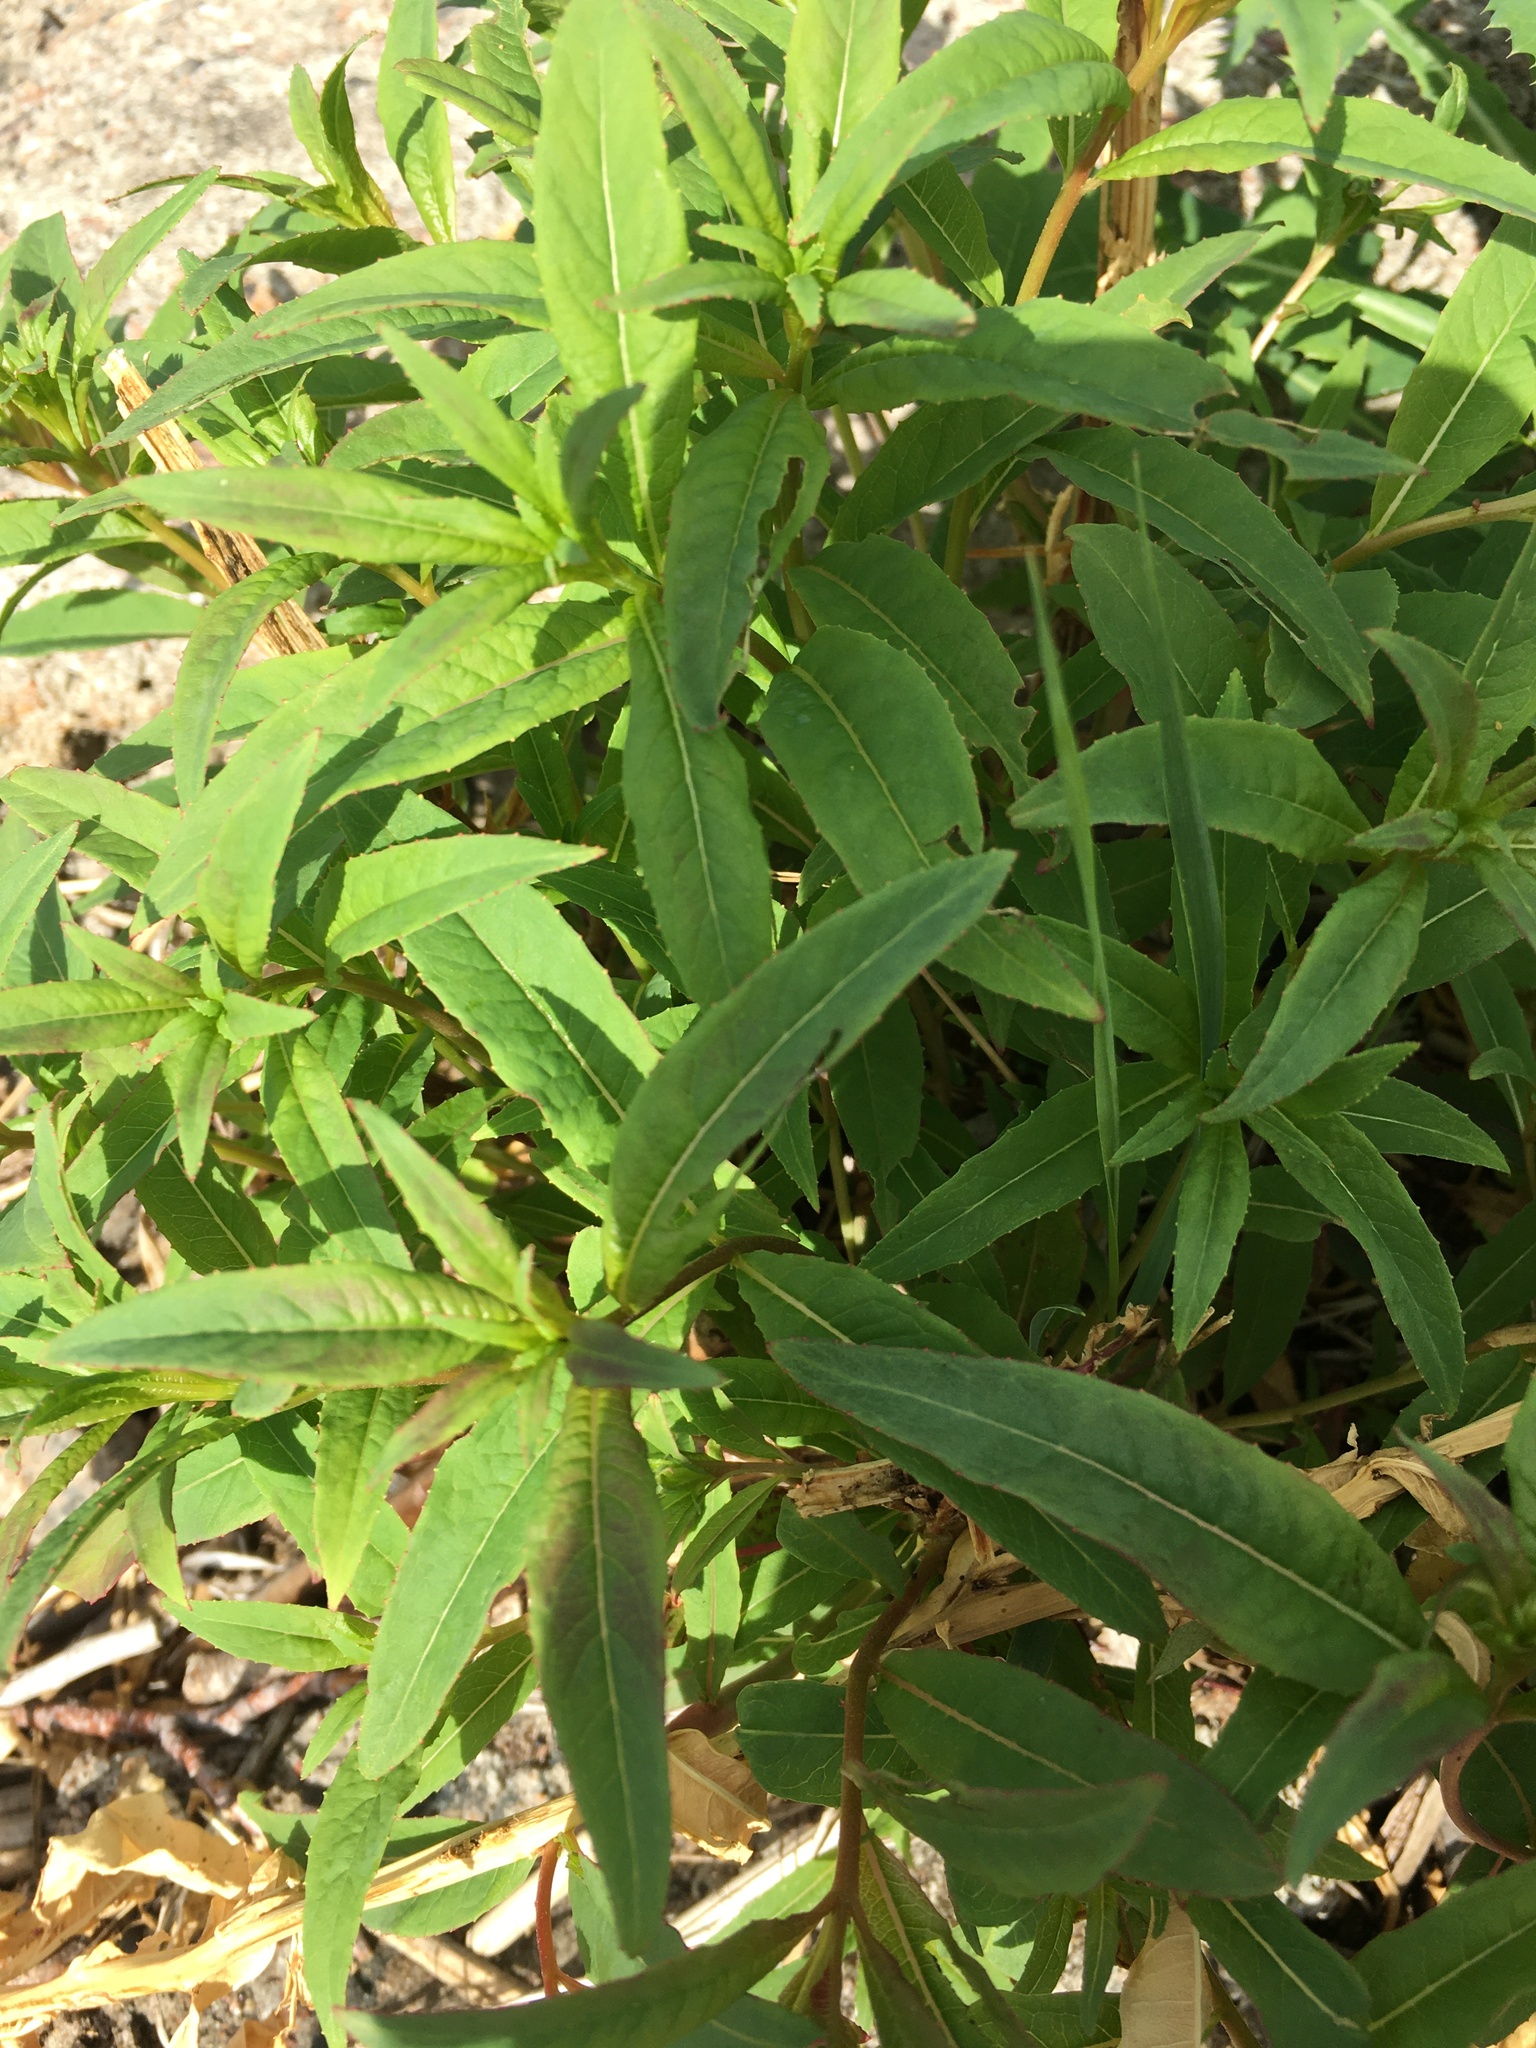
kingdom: Plantae
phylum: Tracheophyta
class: Magnoliopsida
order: Myrtales
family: Onagraceae
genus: Chamaenerion
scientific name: Chamaenerion angustifolium
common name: Fireweed
